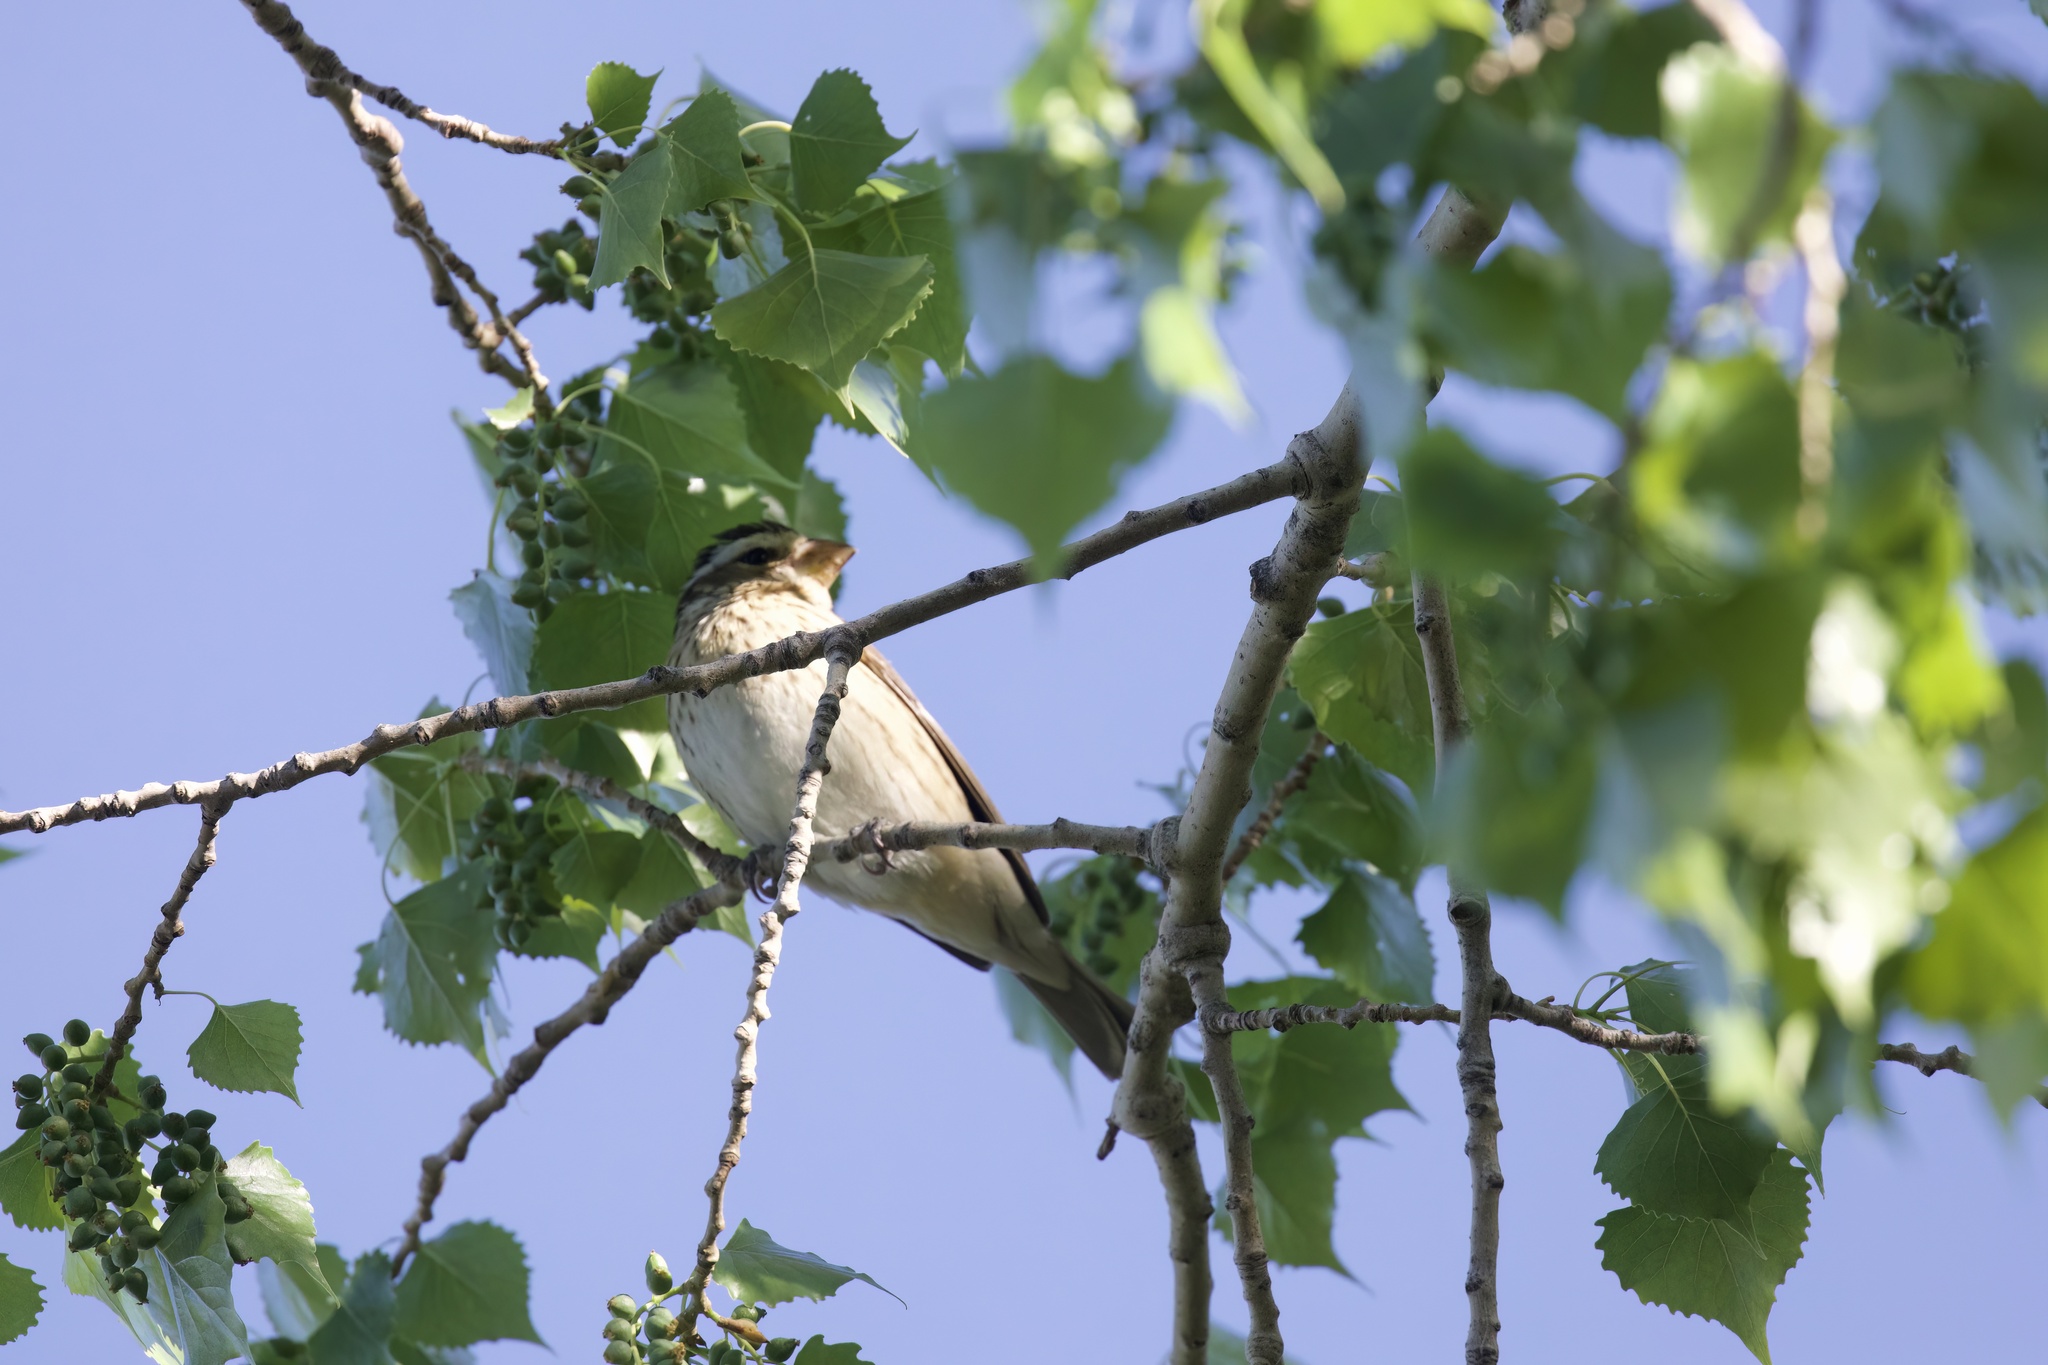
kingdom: Animalia
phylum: Chordata
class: Aves
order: Passeriformes
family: Cardinalidae
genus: Pheucticus
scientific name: Pheucticus ludovicianus
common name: Rose-breasted grosbeak
